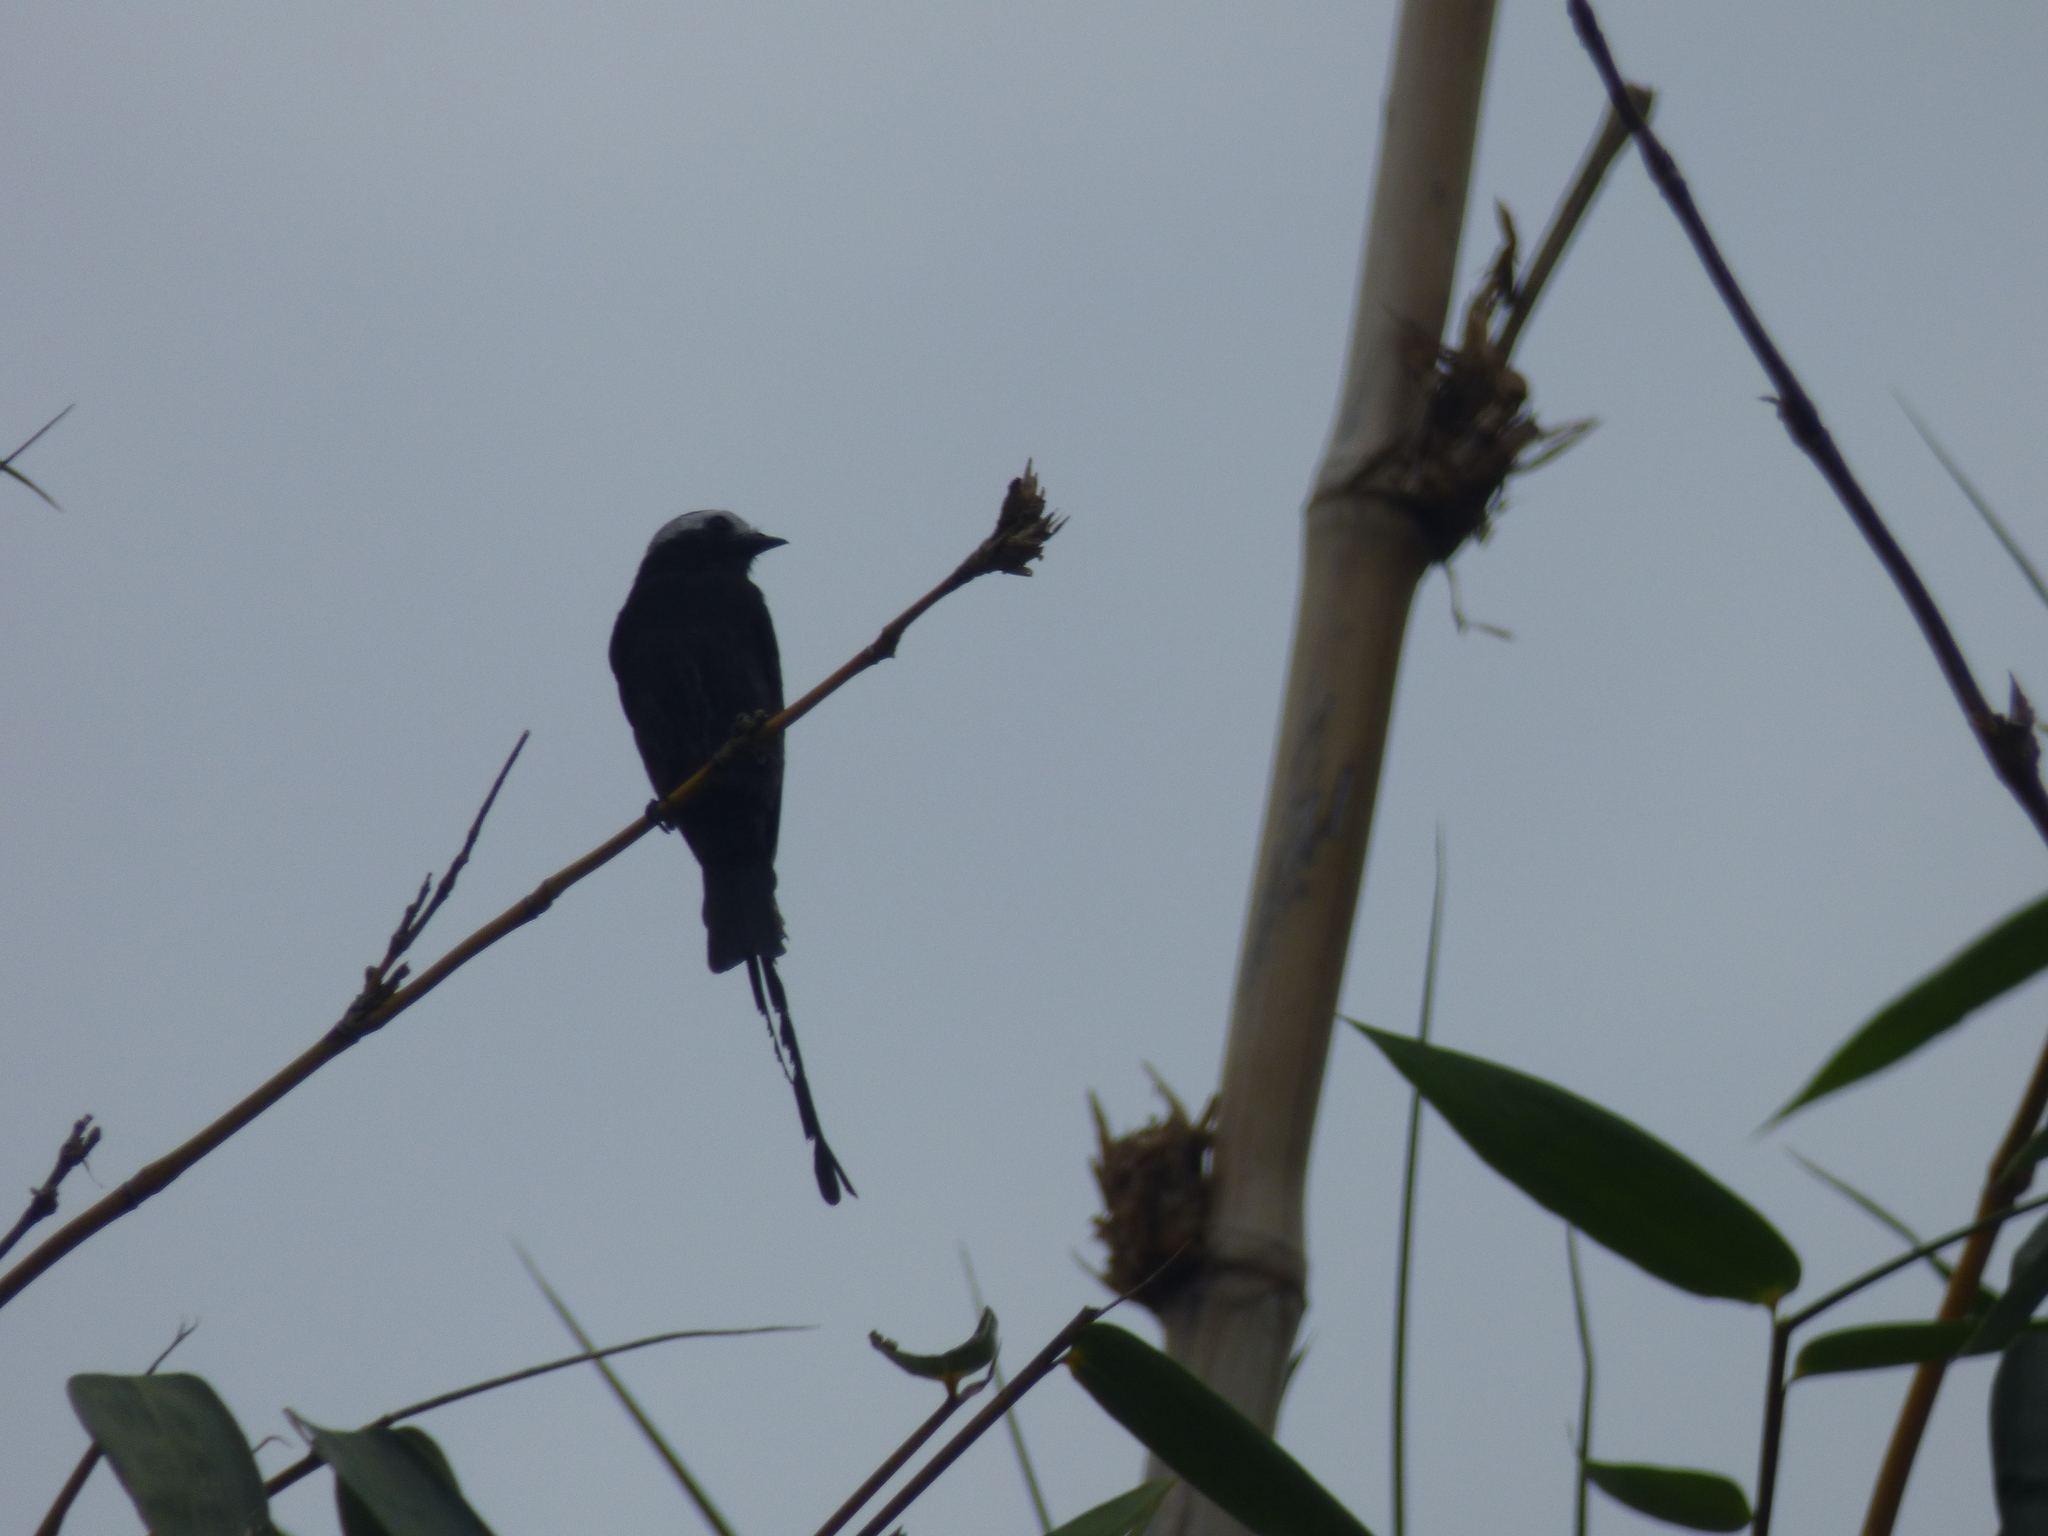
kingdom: Animalia
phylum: Chordata
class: Aves
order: Passeriformes
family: Tyrannidae
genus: Colonia
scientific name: Colonia colonus
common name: Long-tailed tyrant
